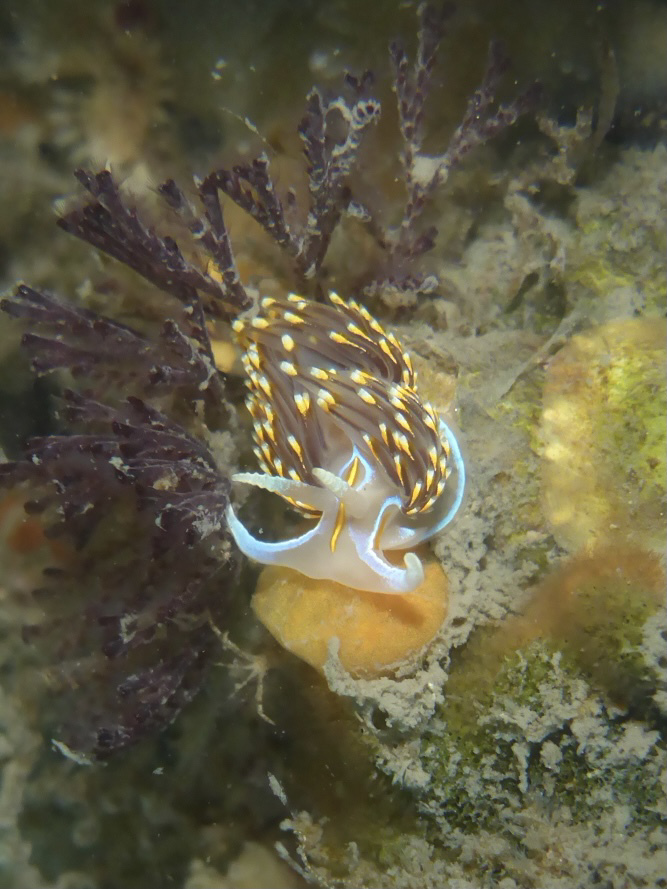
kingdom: Animalia
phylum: Mollusca
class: Gastropoda
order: Nudibranchia
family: Myrrhinidae
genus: Hermissenda
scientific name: Hermissenda opalescens
